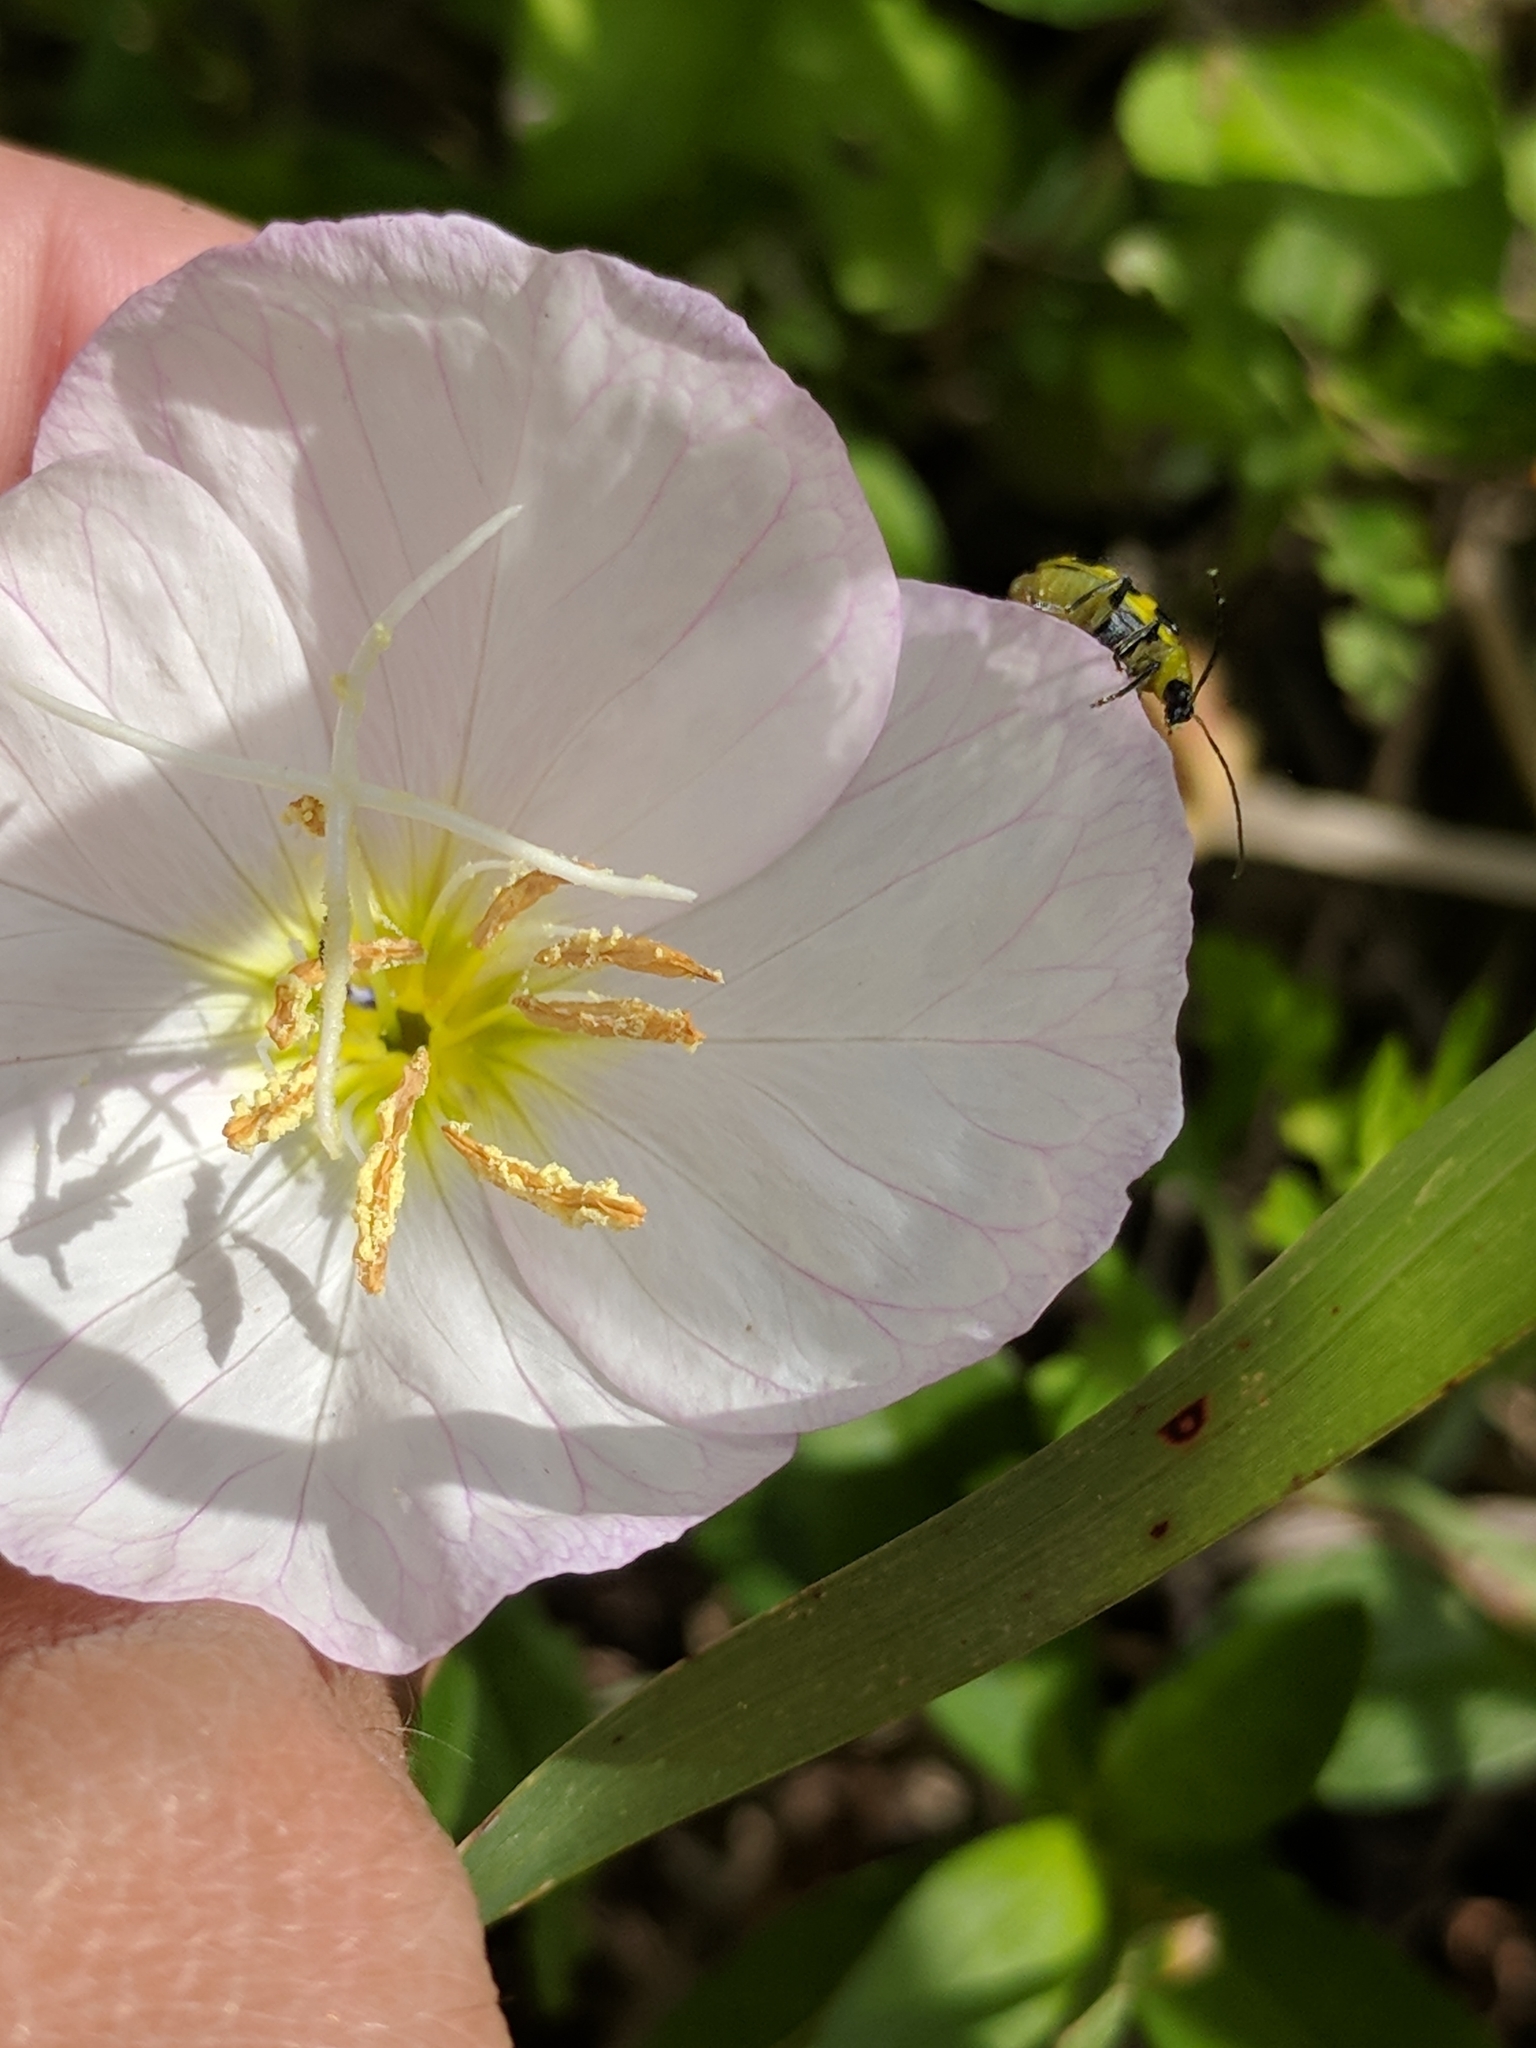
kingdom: Animalia
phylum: Arthropoda
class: Insecta
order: Coleoptera
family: Chrysomelidae
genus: Diabrotica
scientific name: Diabrotica undecimpunctata
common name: Spotted cucumber beetle
